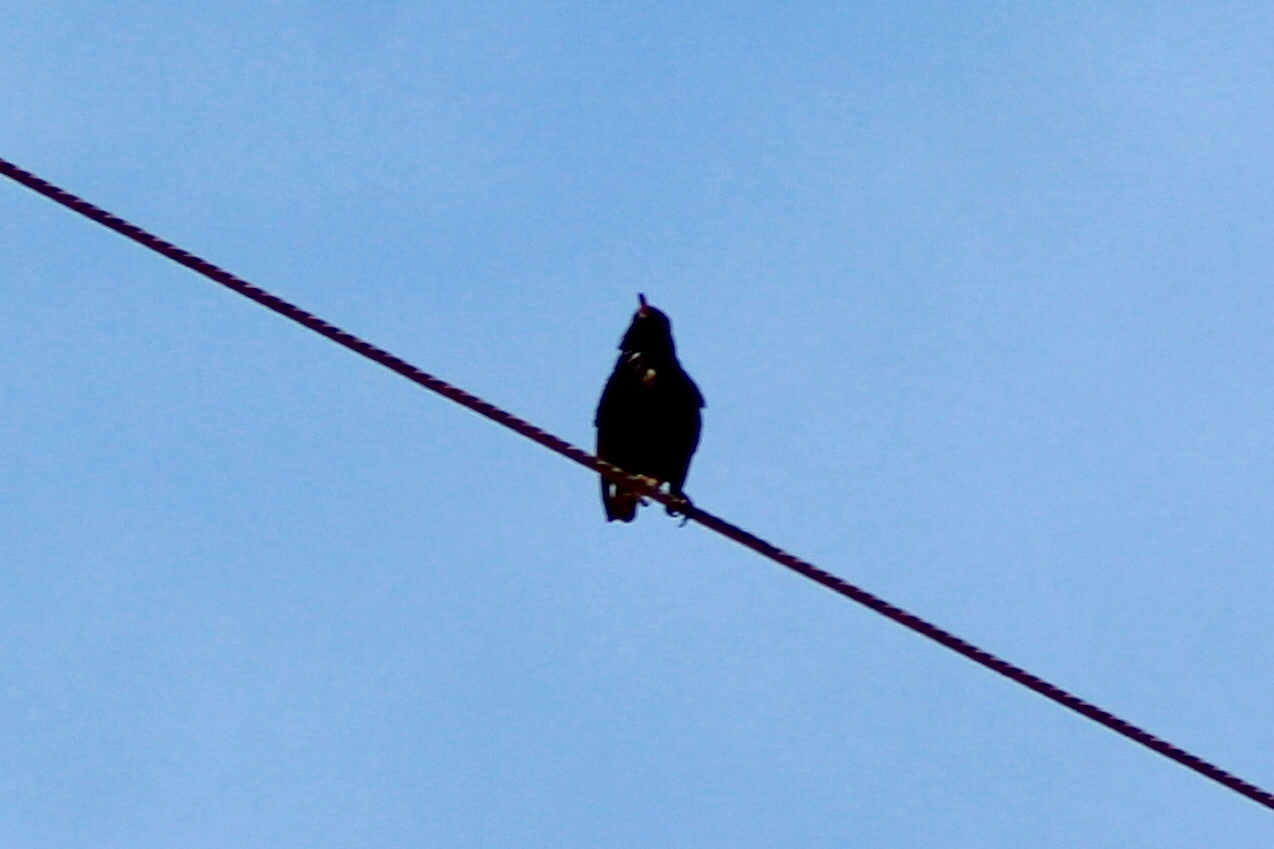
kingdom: Animalia
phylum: Chordata
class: Aves
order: Passeriformes
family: Sturnidae
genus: Sturnus
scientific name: Sturnus vulgaris
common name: Common starling
